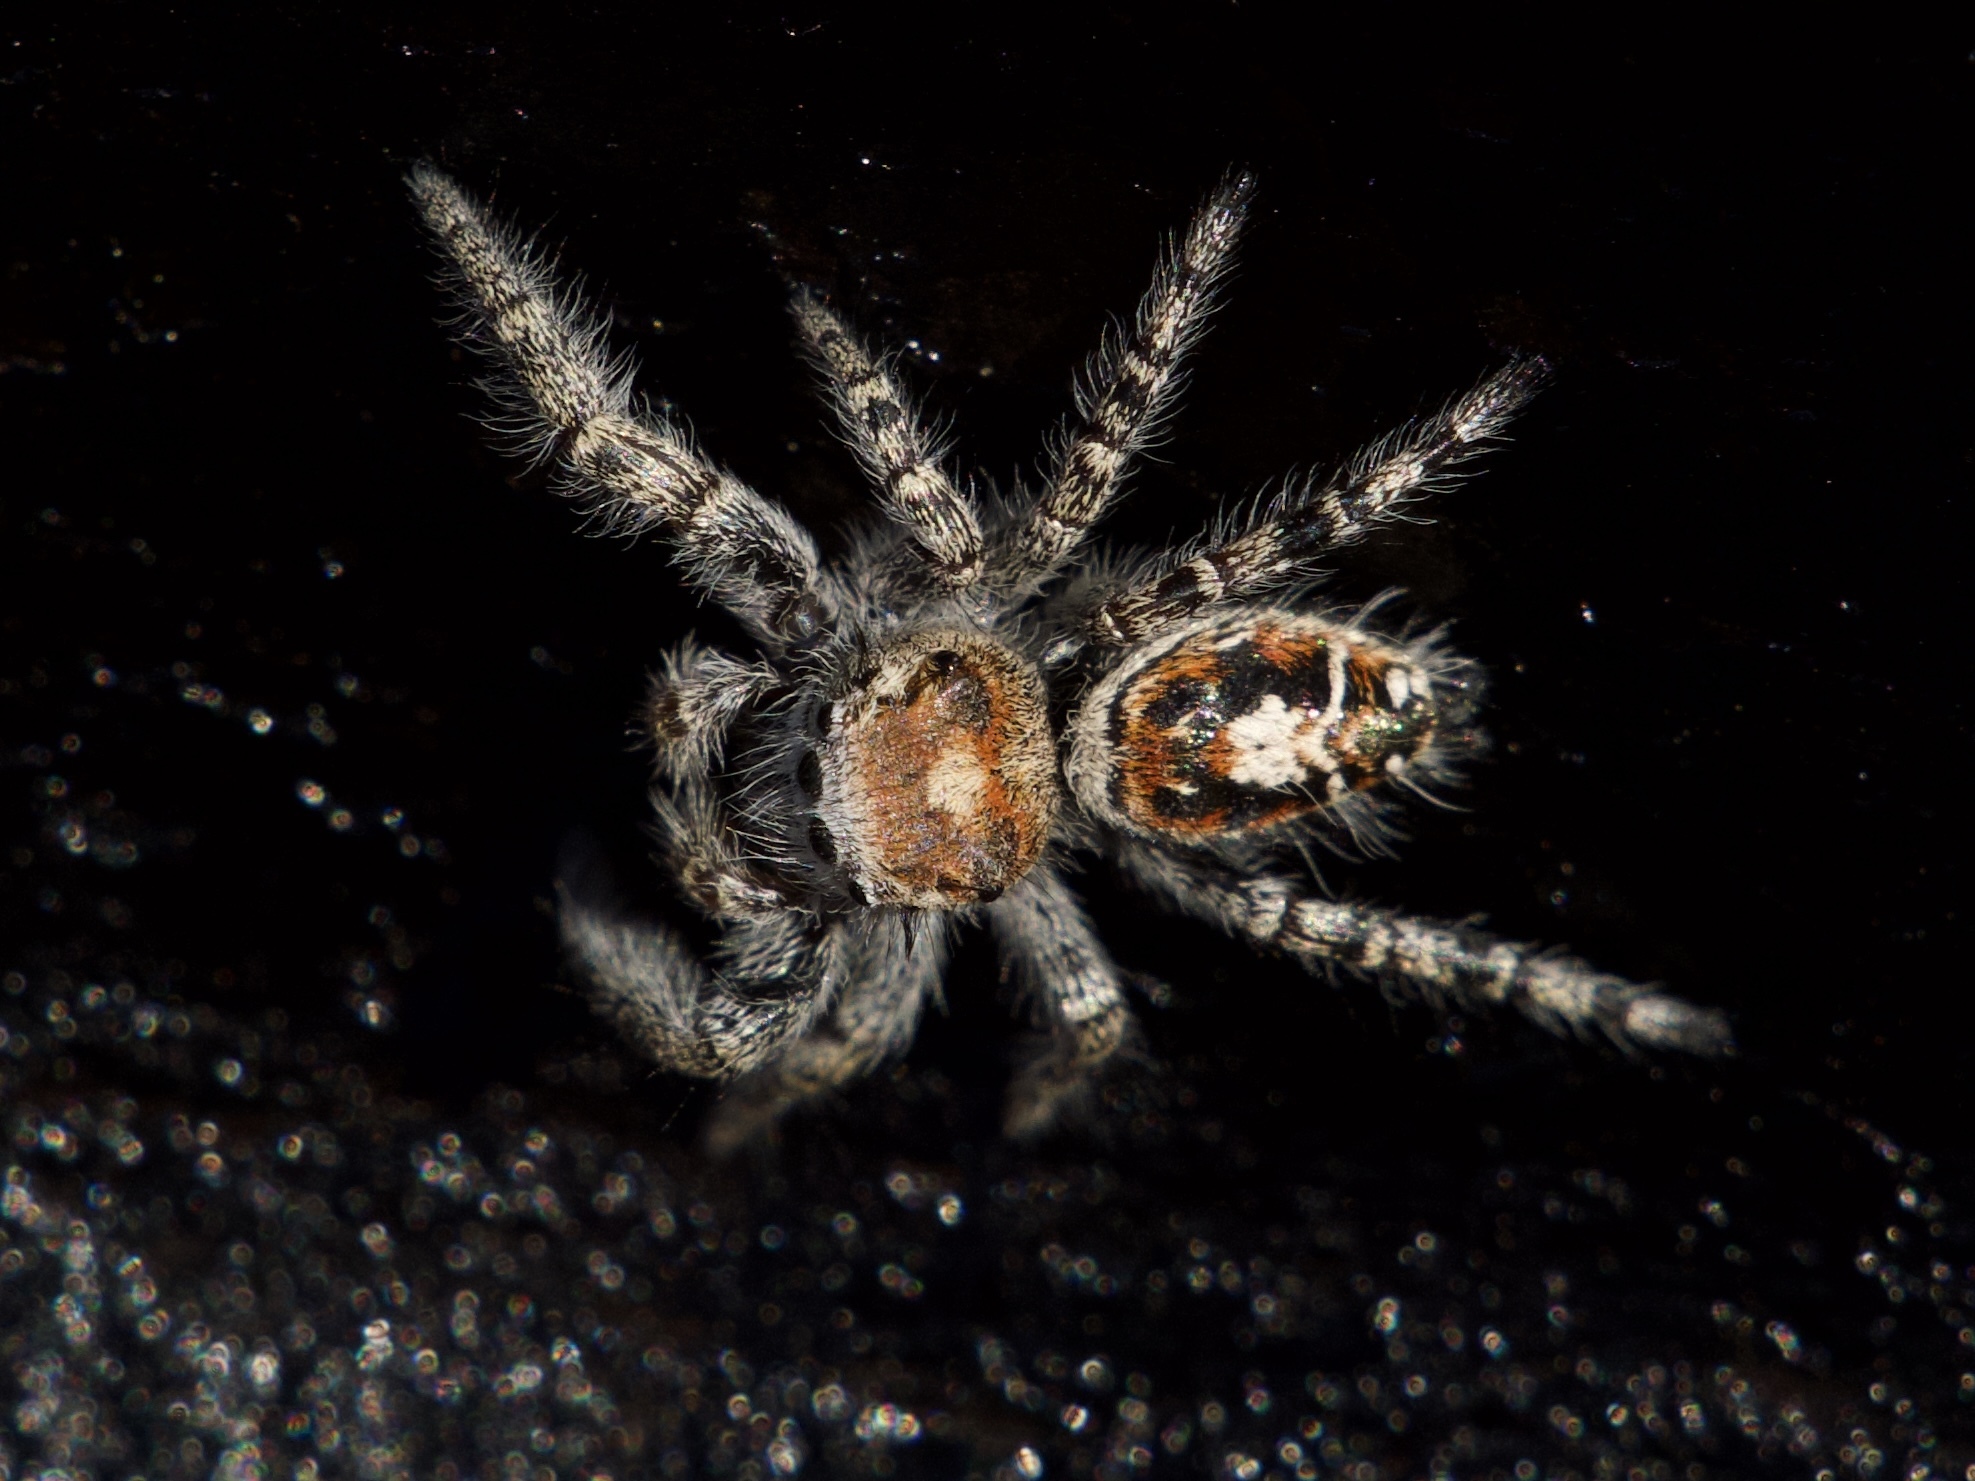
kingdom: Animalia
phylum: Arthropoda
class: Arachnida
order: Araneae
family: Salticidae
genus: Phidippus
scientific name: Phidippus comatus
